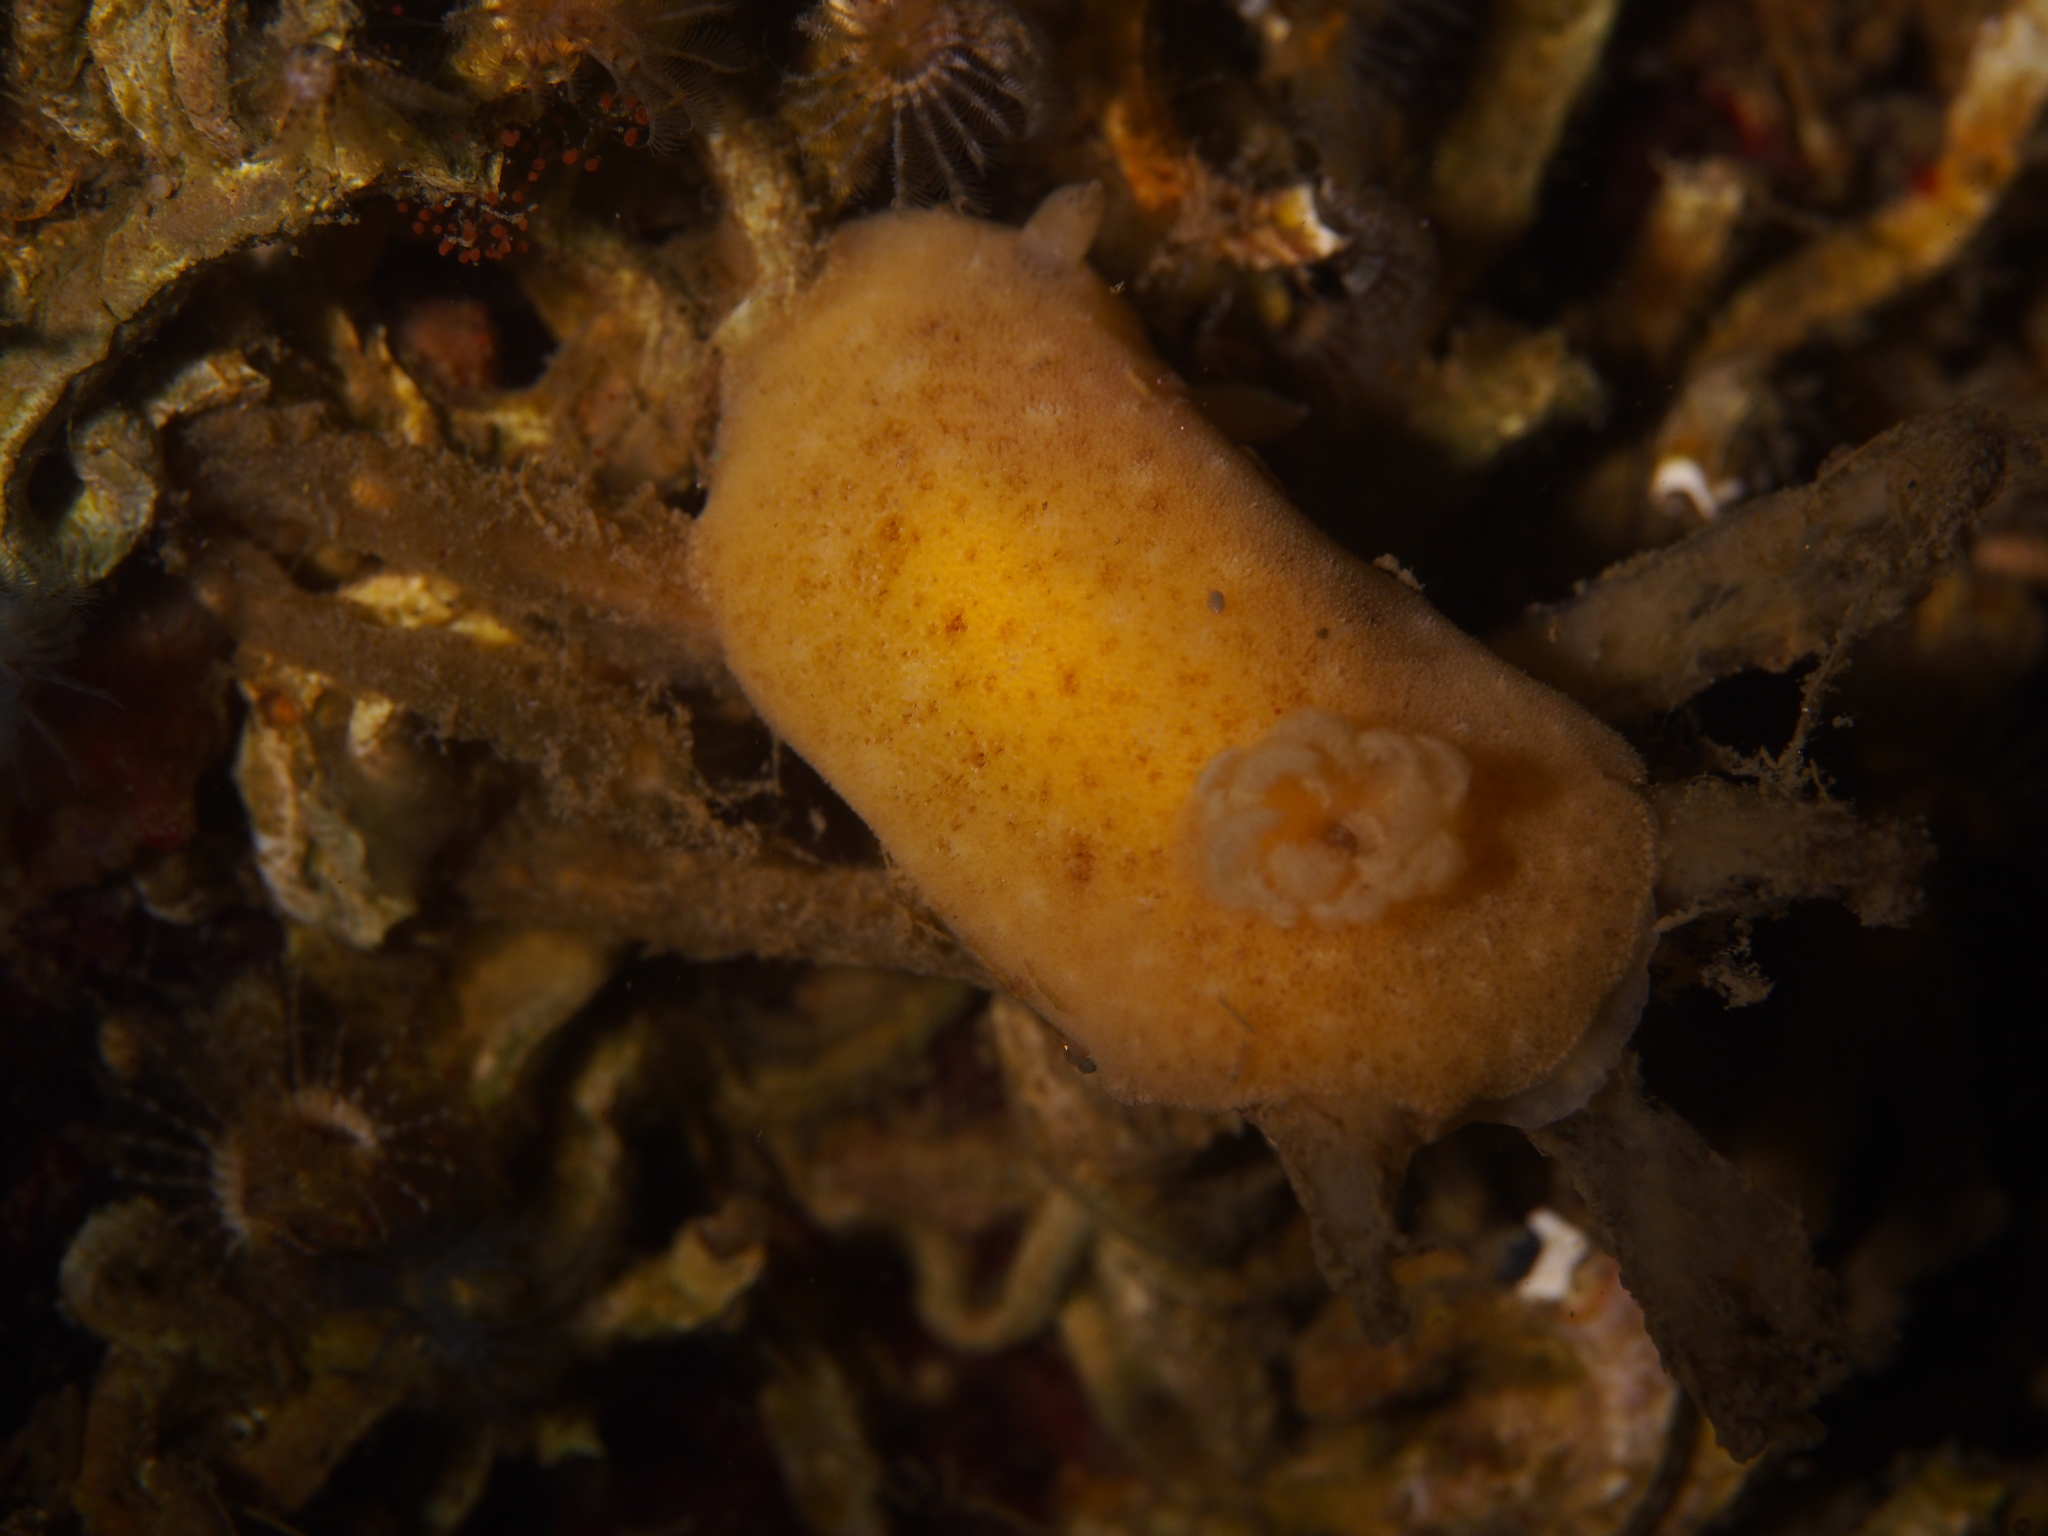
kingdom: Animalia
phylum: Mollusca
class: Gastropoda
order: Nudibranchia
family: Discodorididae
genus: Jorunna
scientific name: Jorunna tomentosa
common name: Grey sea slug
